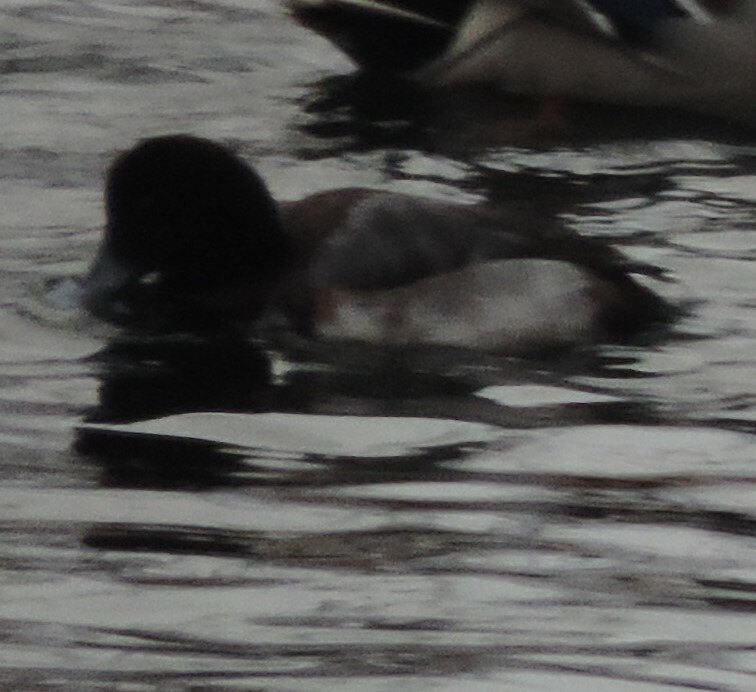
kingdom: Animalia
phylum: Chordata
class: Aves
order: Anseriformes
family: Anatidae
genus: Aythya
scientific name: Aythya marila
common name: Greater scaup
